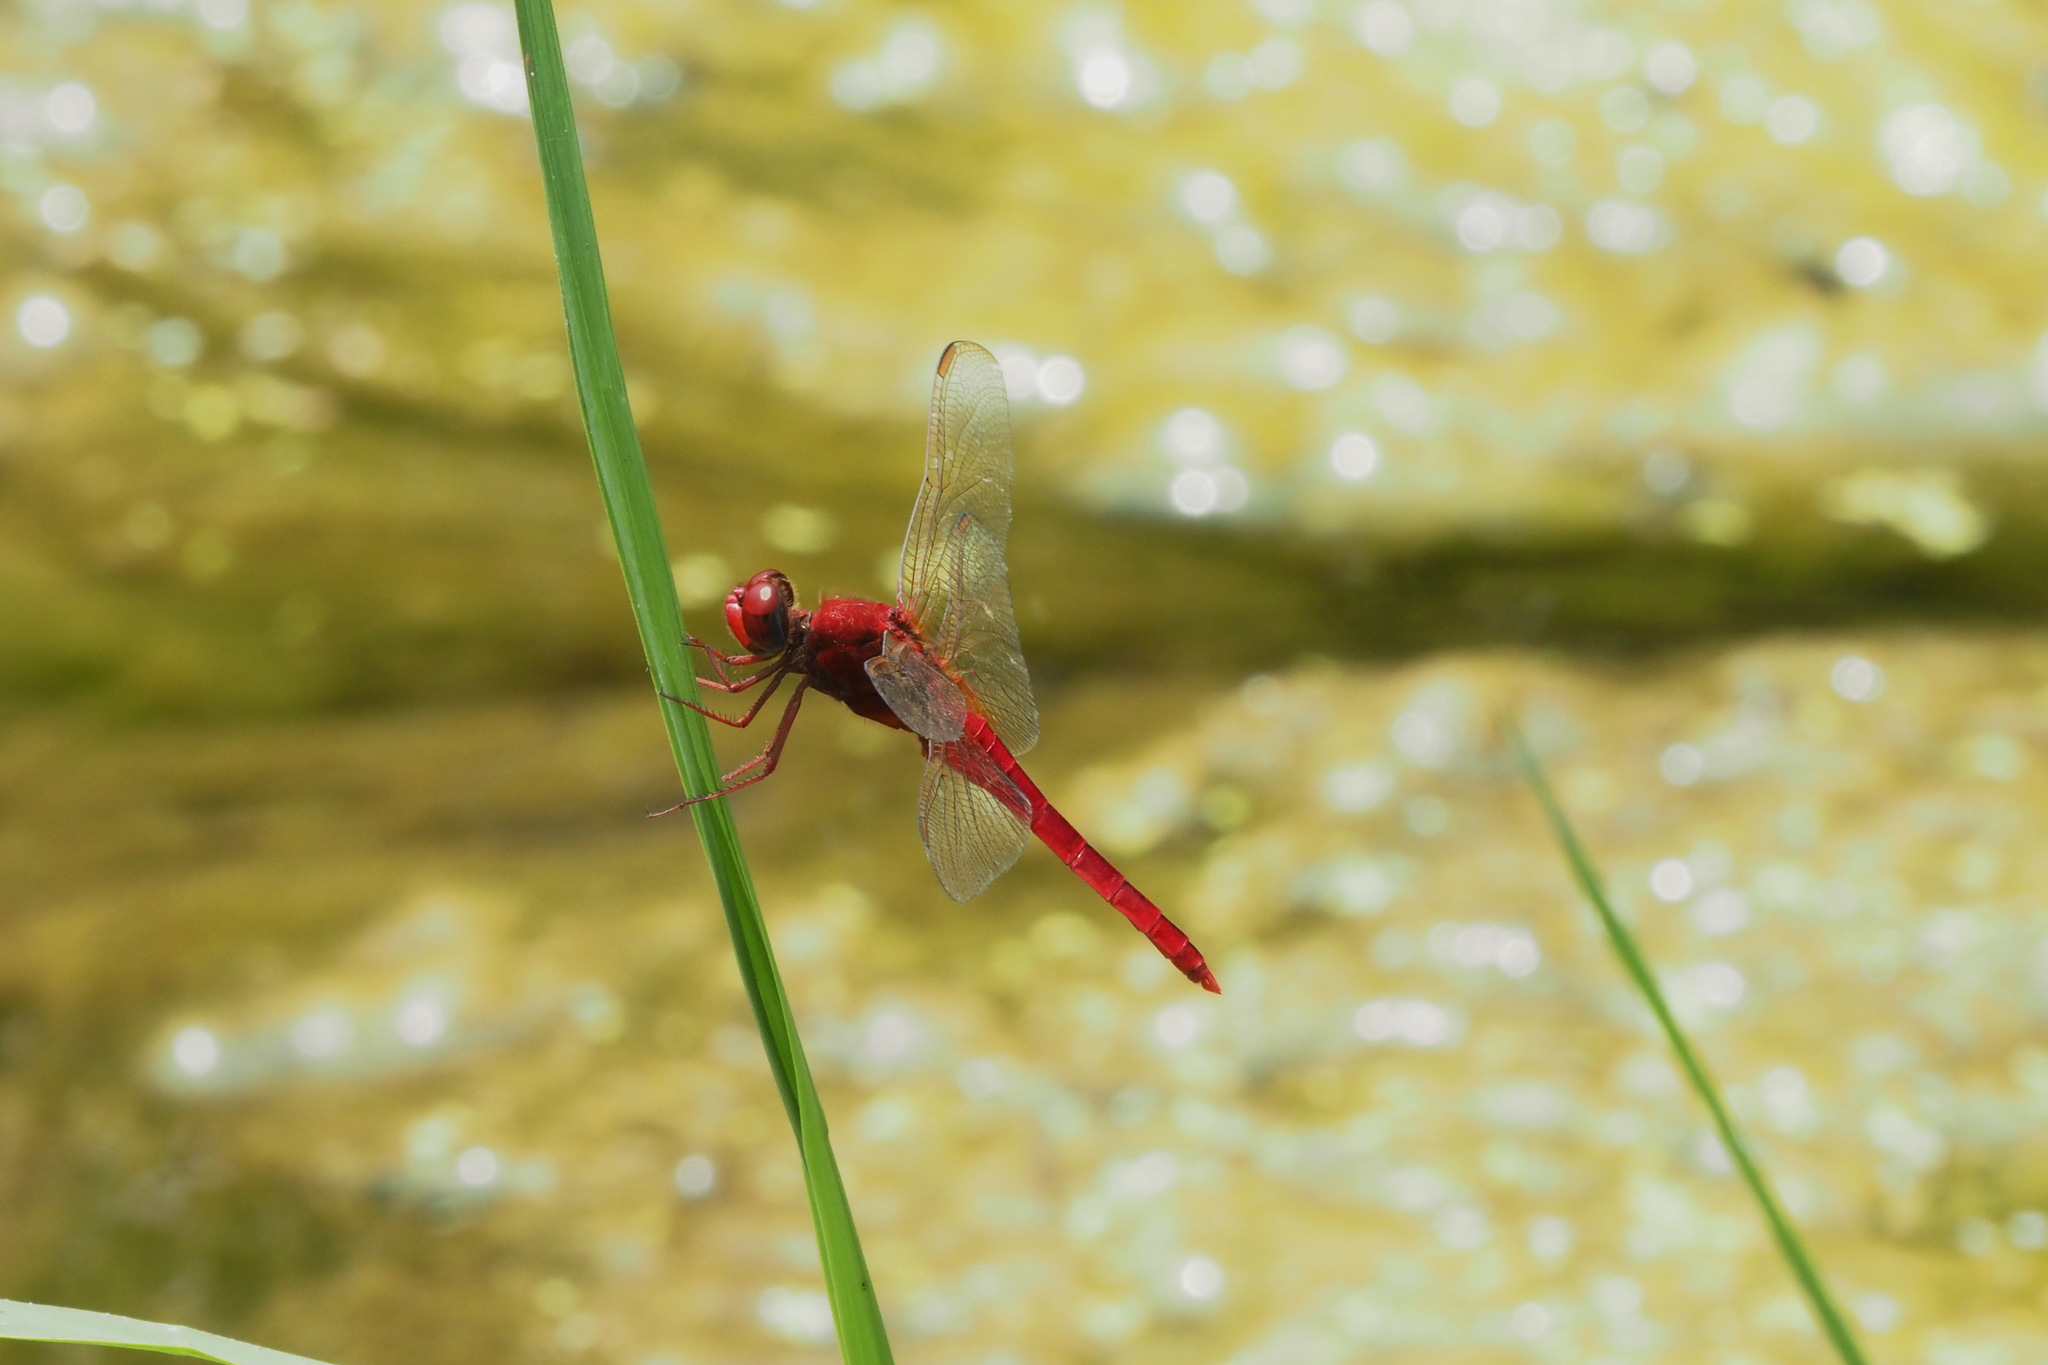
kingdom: Animalia
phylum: Arthropoda
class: Insecta
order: Odonata
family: Libellulidae
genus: Crocothemis
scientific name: Crocothemis servilia
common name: Scarlet skimmer
